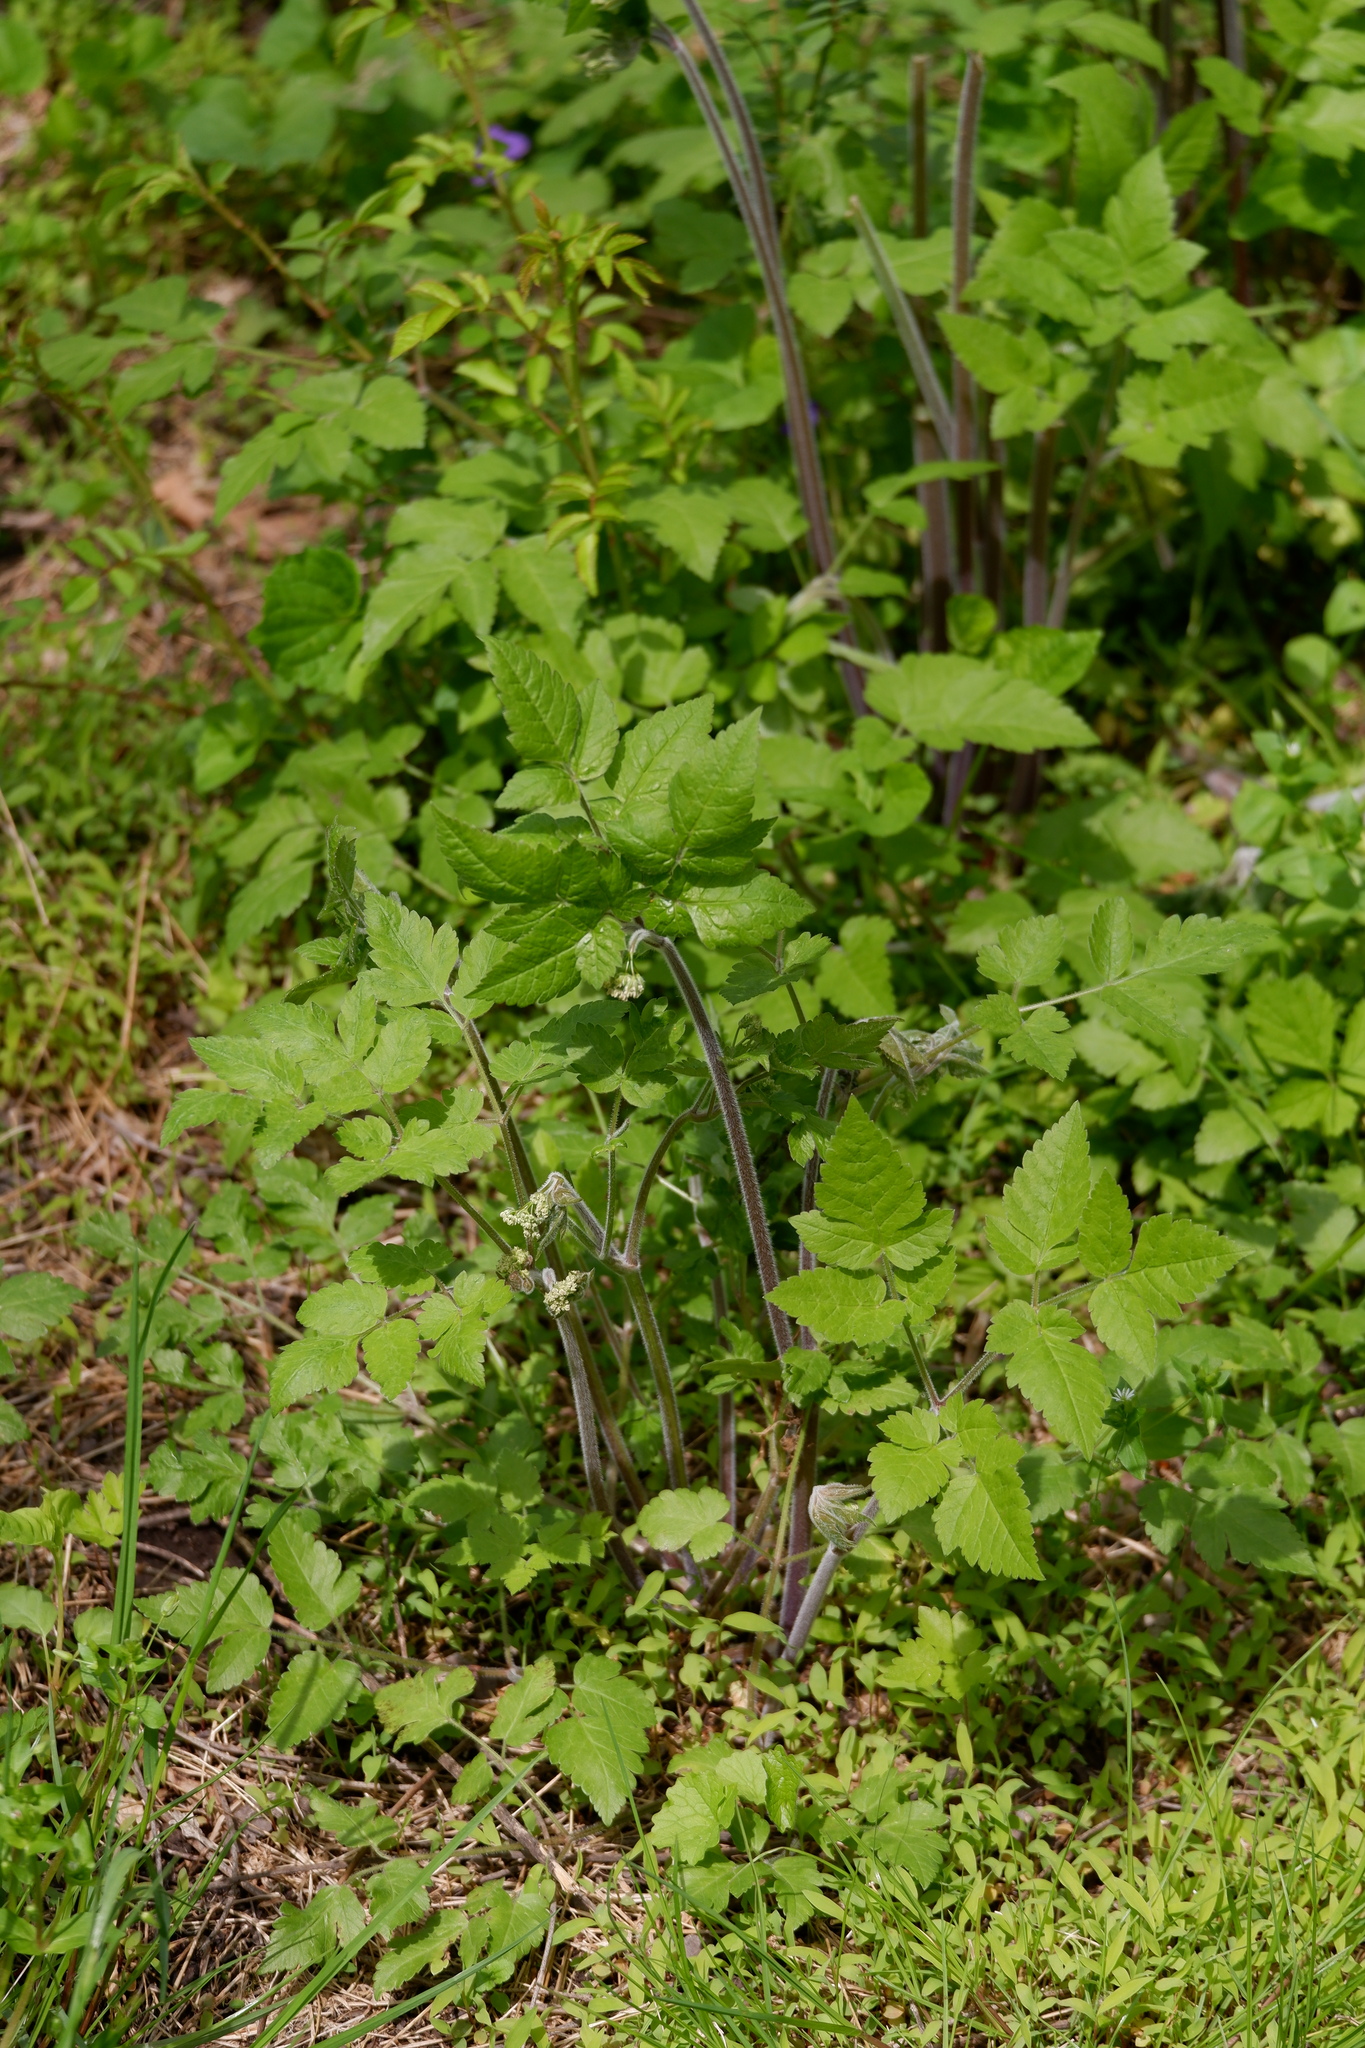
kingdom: Plantae
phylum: Tracheophyta
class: Magnoliopsida
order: Apiales
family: Apiaceae
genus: Osmorhiza
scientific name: Osmorhiza longistylis
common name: Smooth sweet cicely
